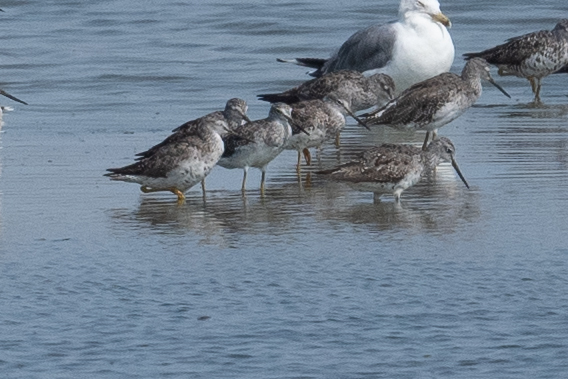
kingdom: Animalia
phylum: Chordata
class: Aves
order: Charadriiformes
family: Scolopacidae
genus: Tringa
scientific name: Tringa melanoleuca
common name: Greater yellowlegs
